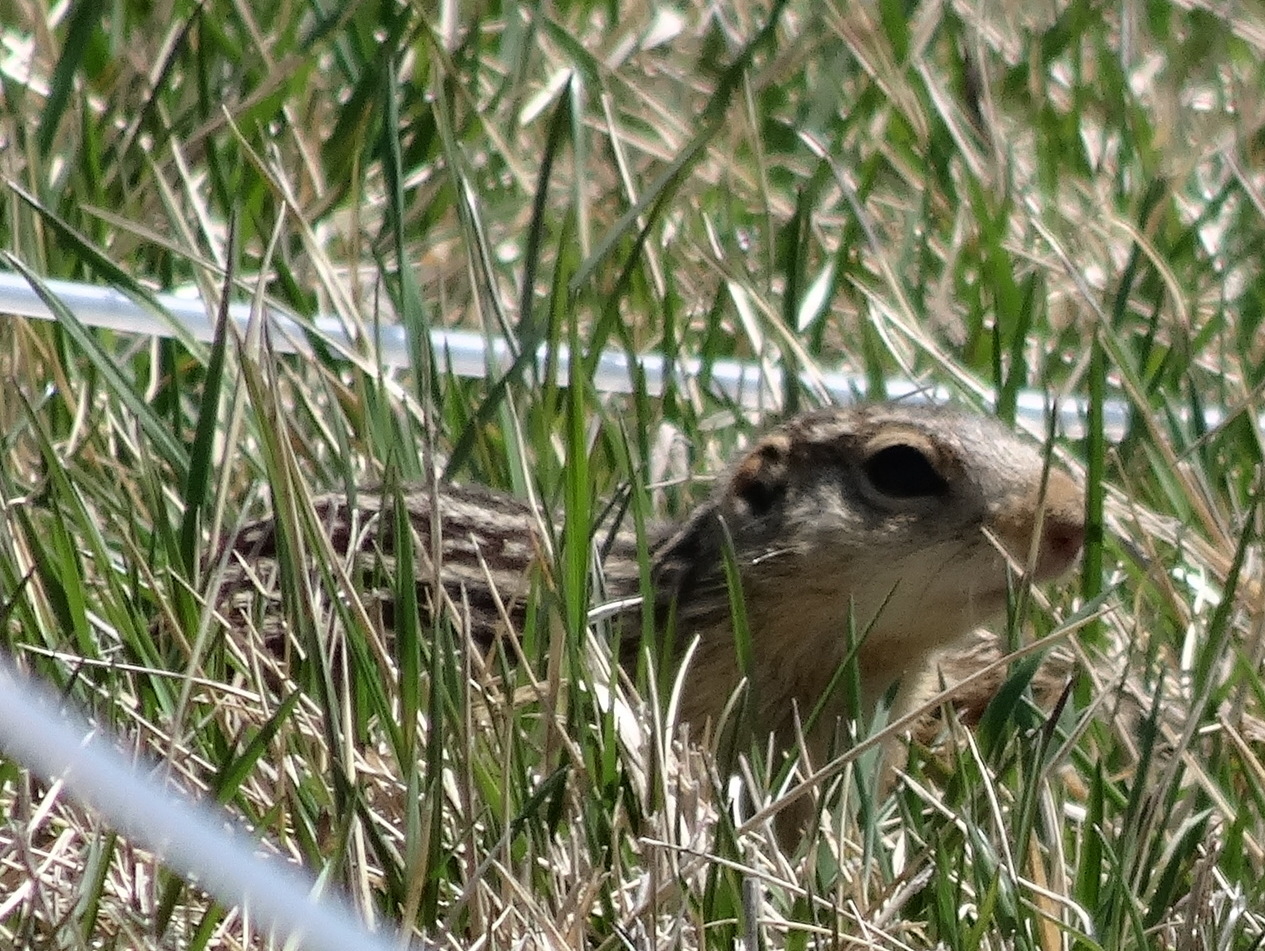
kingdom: Animalia
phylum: Chordata
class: Mammalia
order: Rodentia
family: Sciuridae
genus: Ictidomys
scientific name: Ictidomys tridecemlineatus
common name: Thirteen-lined ground squirrel
